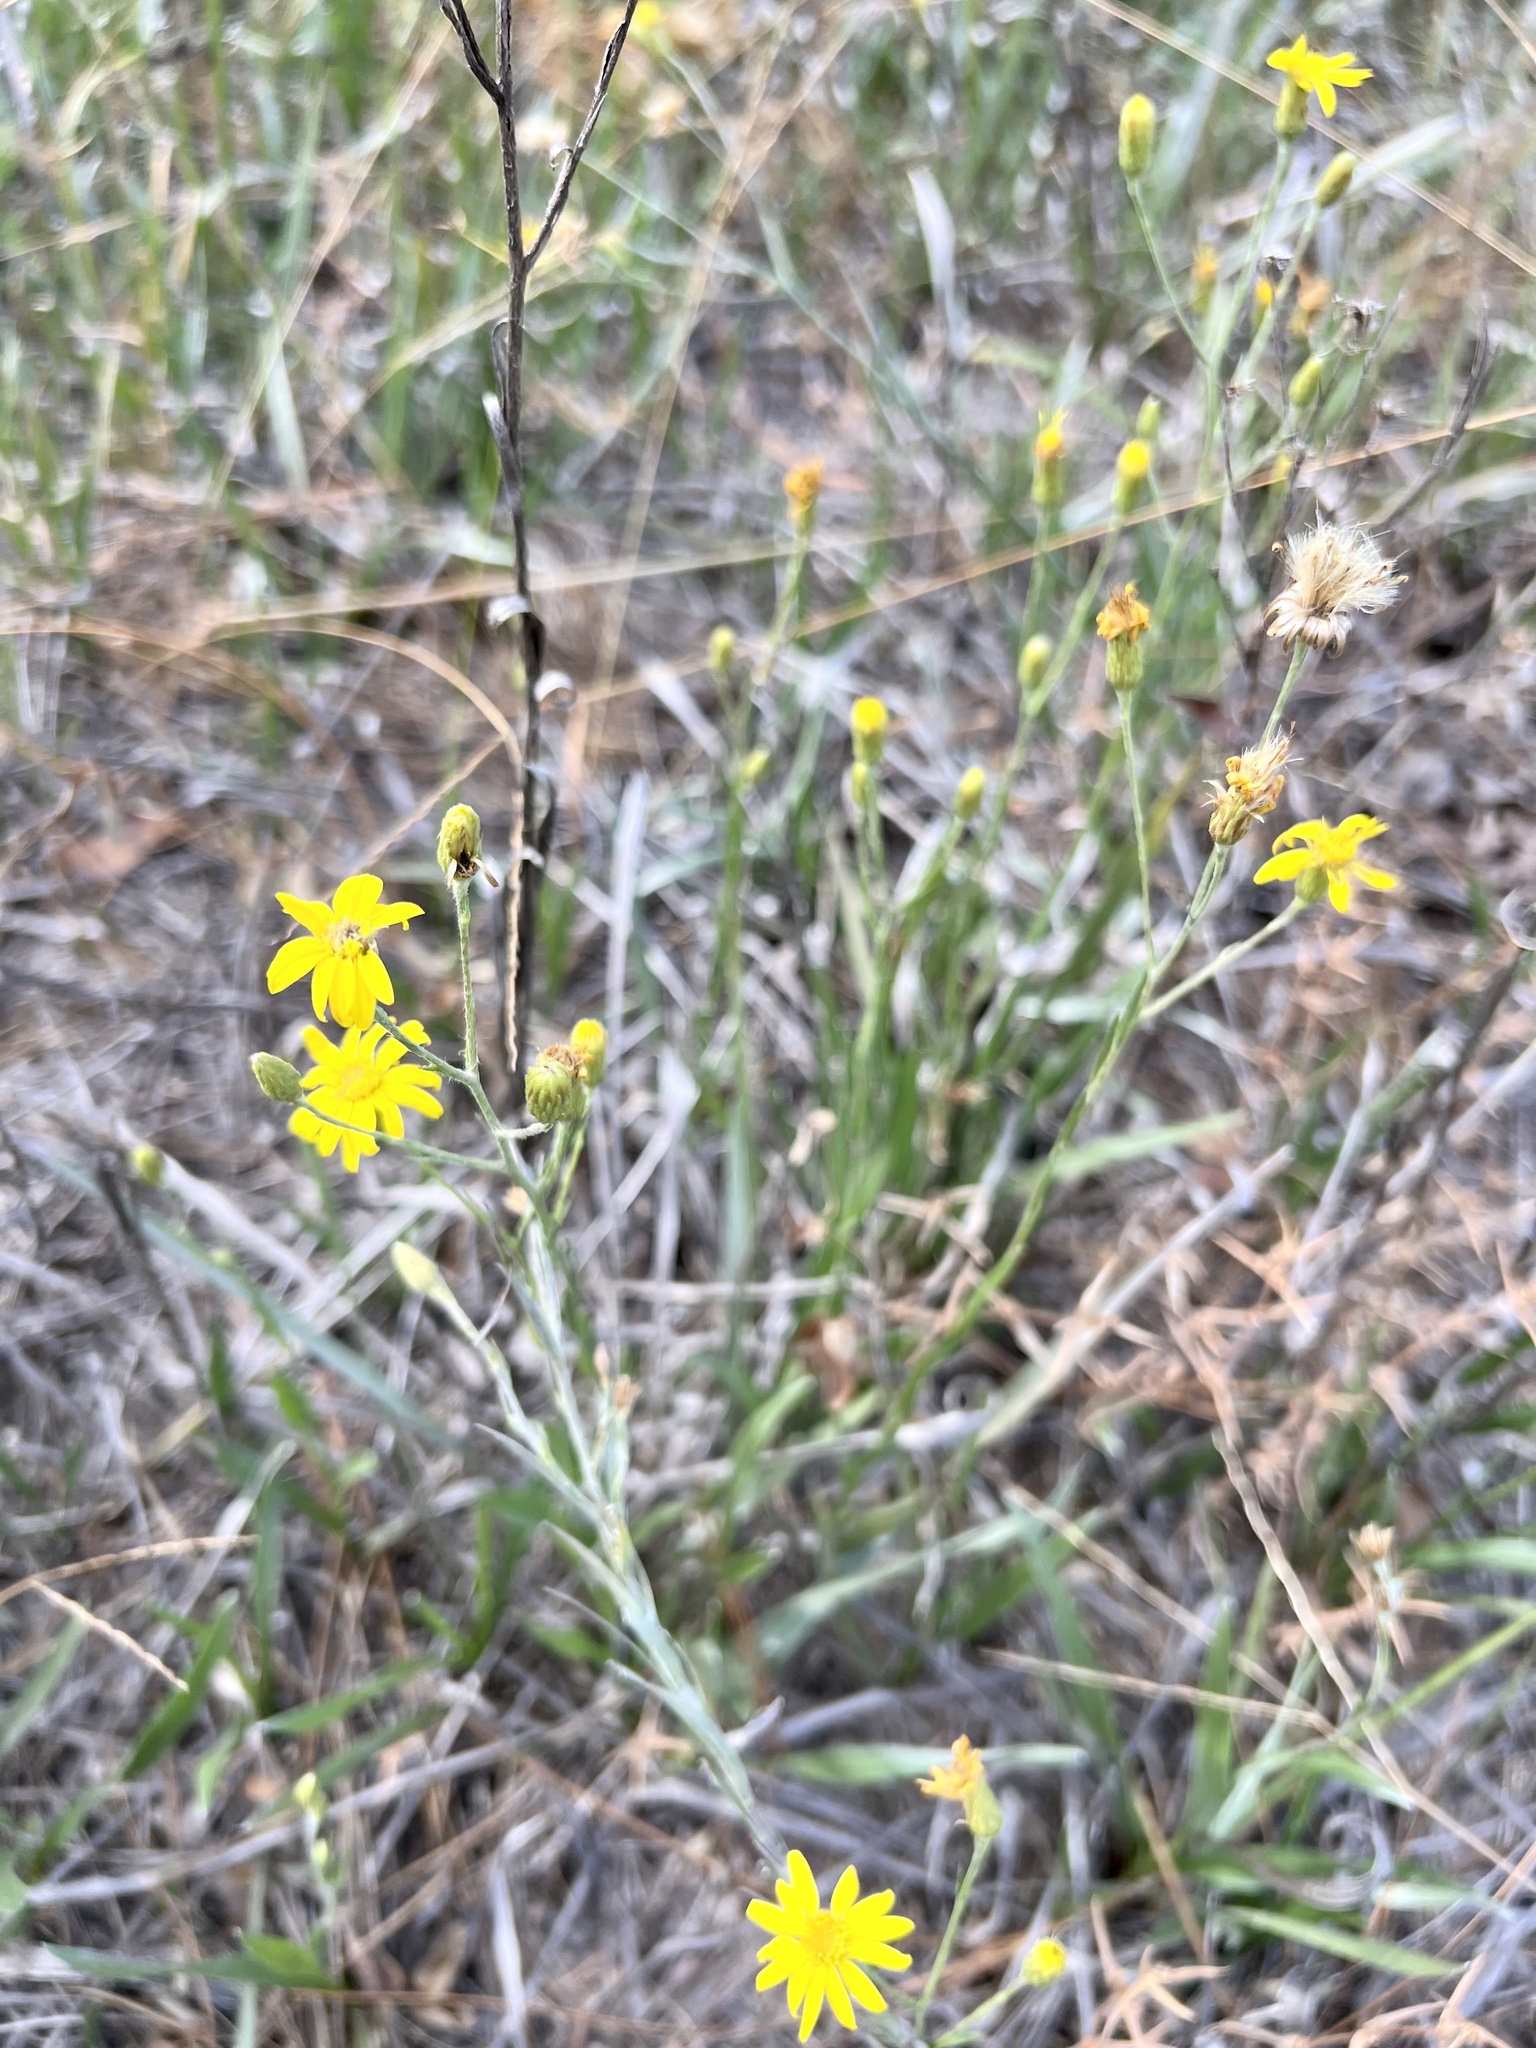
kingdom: Plantae
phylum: Tracheophyta
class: Magnoliopsida
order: Asterales
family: Asteraceae
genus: Pityopsis
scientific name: Pityopsis graminifolia
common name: Grass-leaf golden-aster
